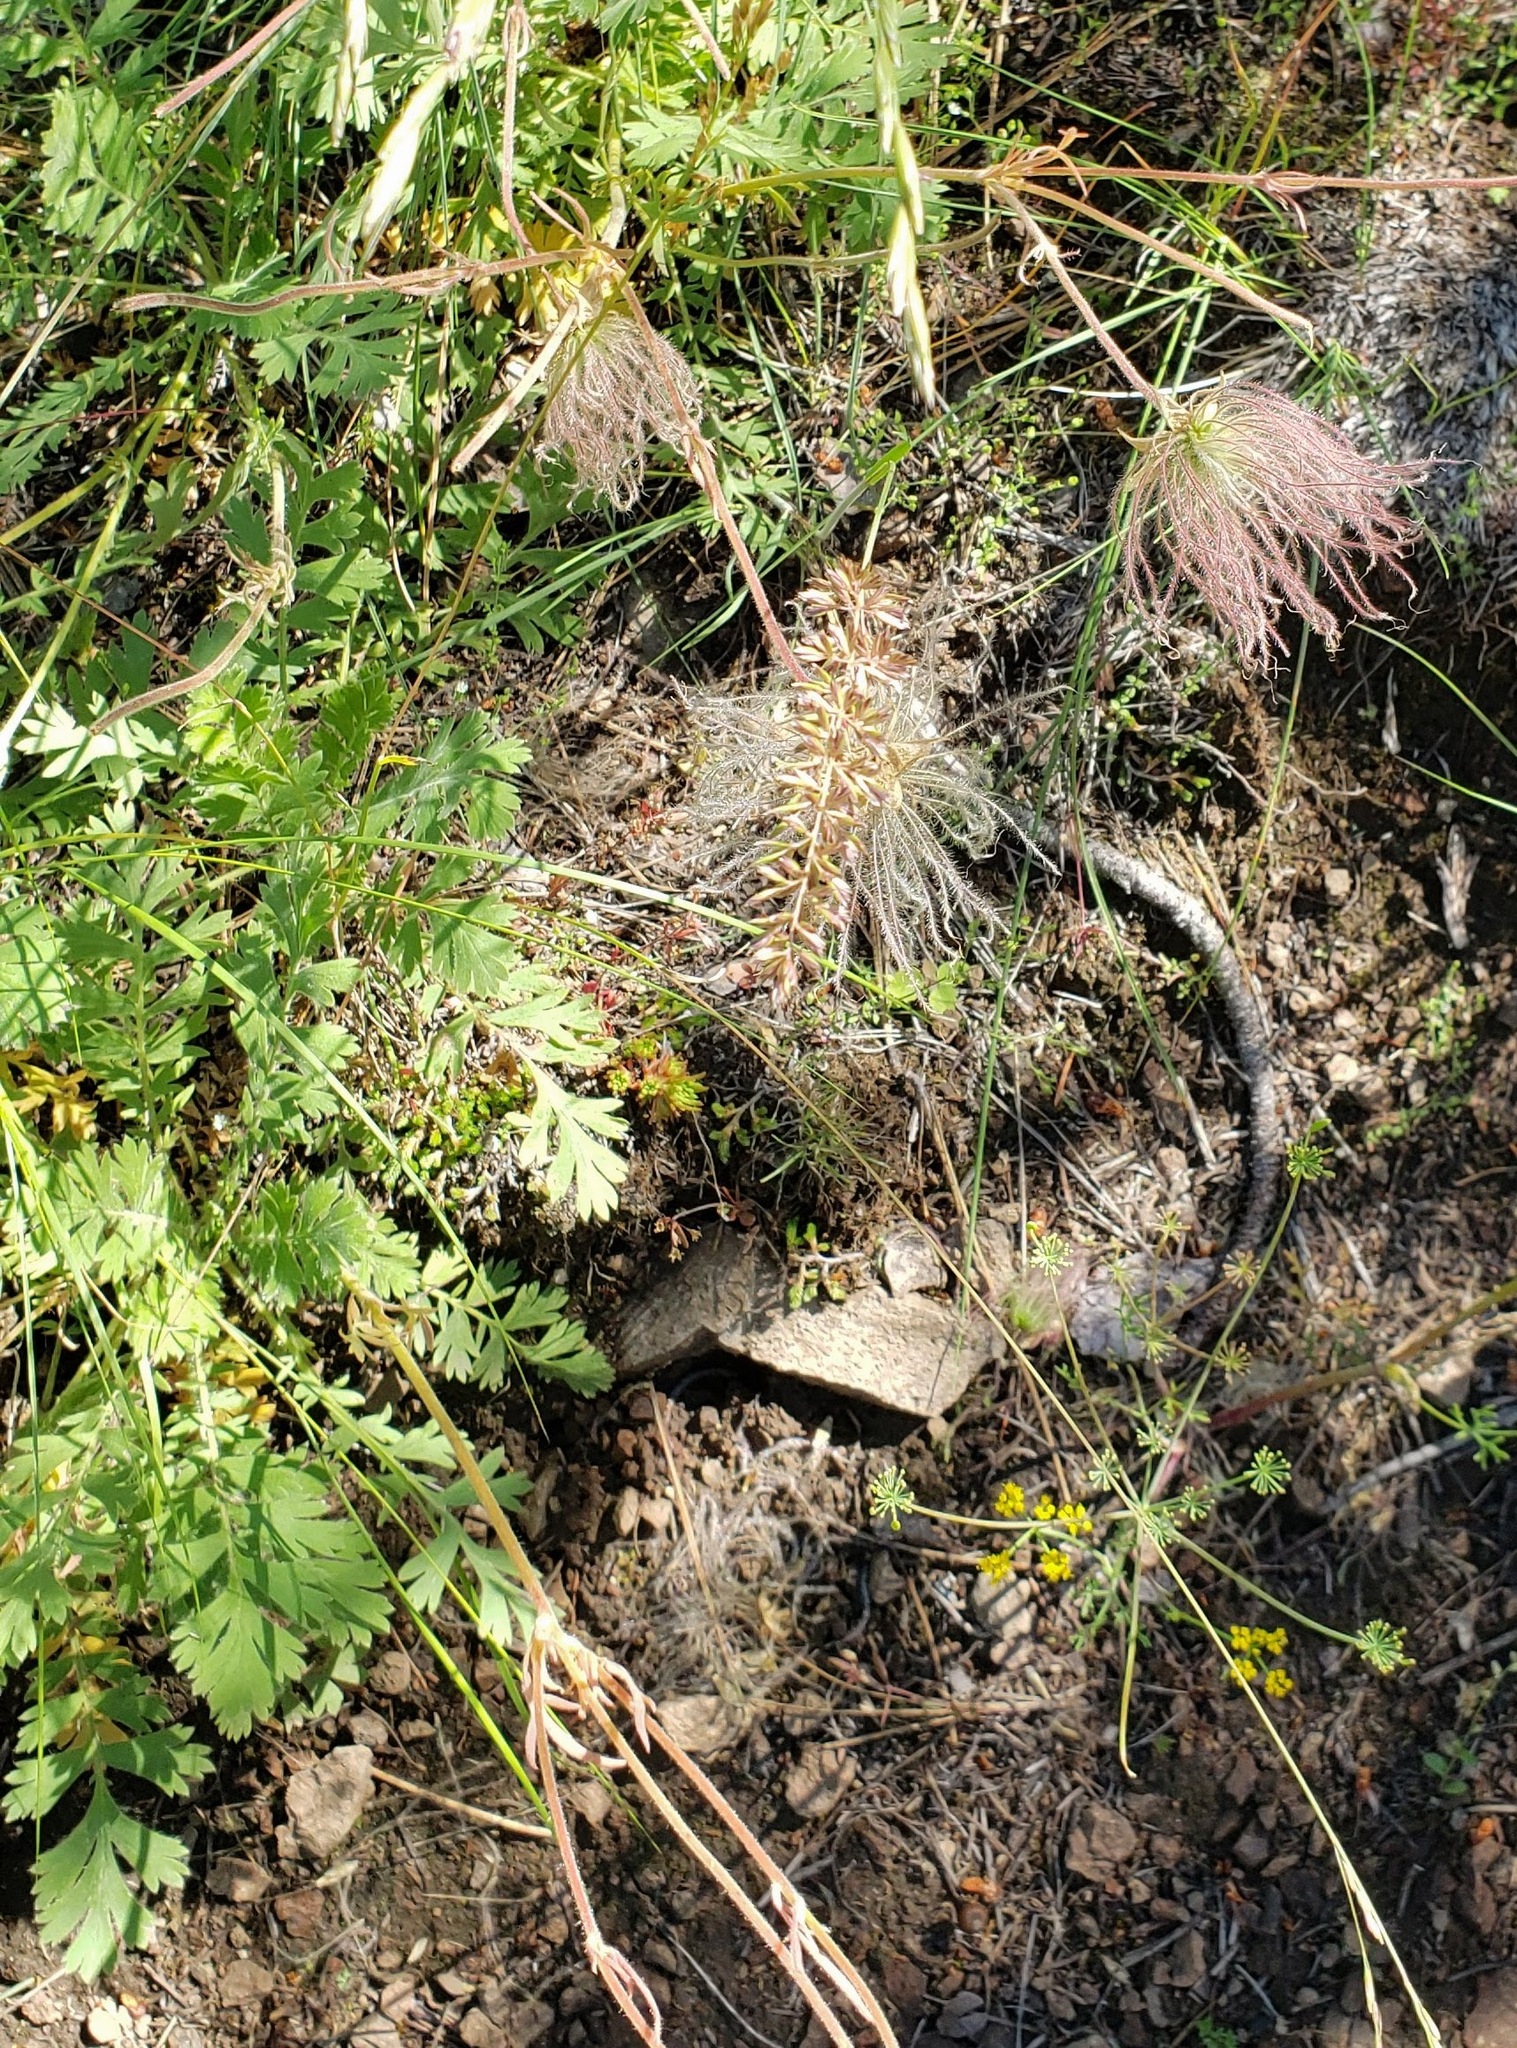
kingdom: Plantae
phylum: Tracheophyta
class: Magnoliopsida
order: Rosales
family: Rosaceae
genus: Geum
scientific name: Geum triflorum
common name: Old man's whiskers
